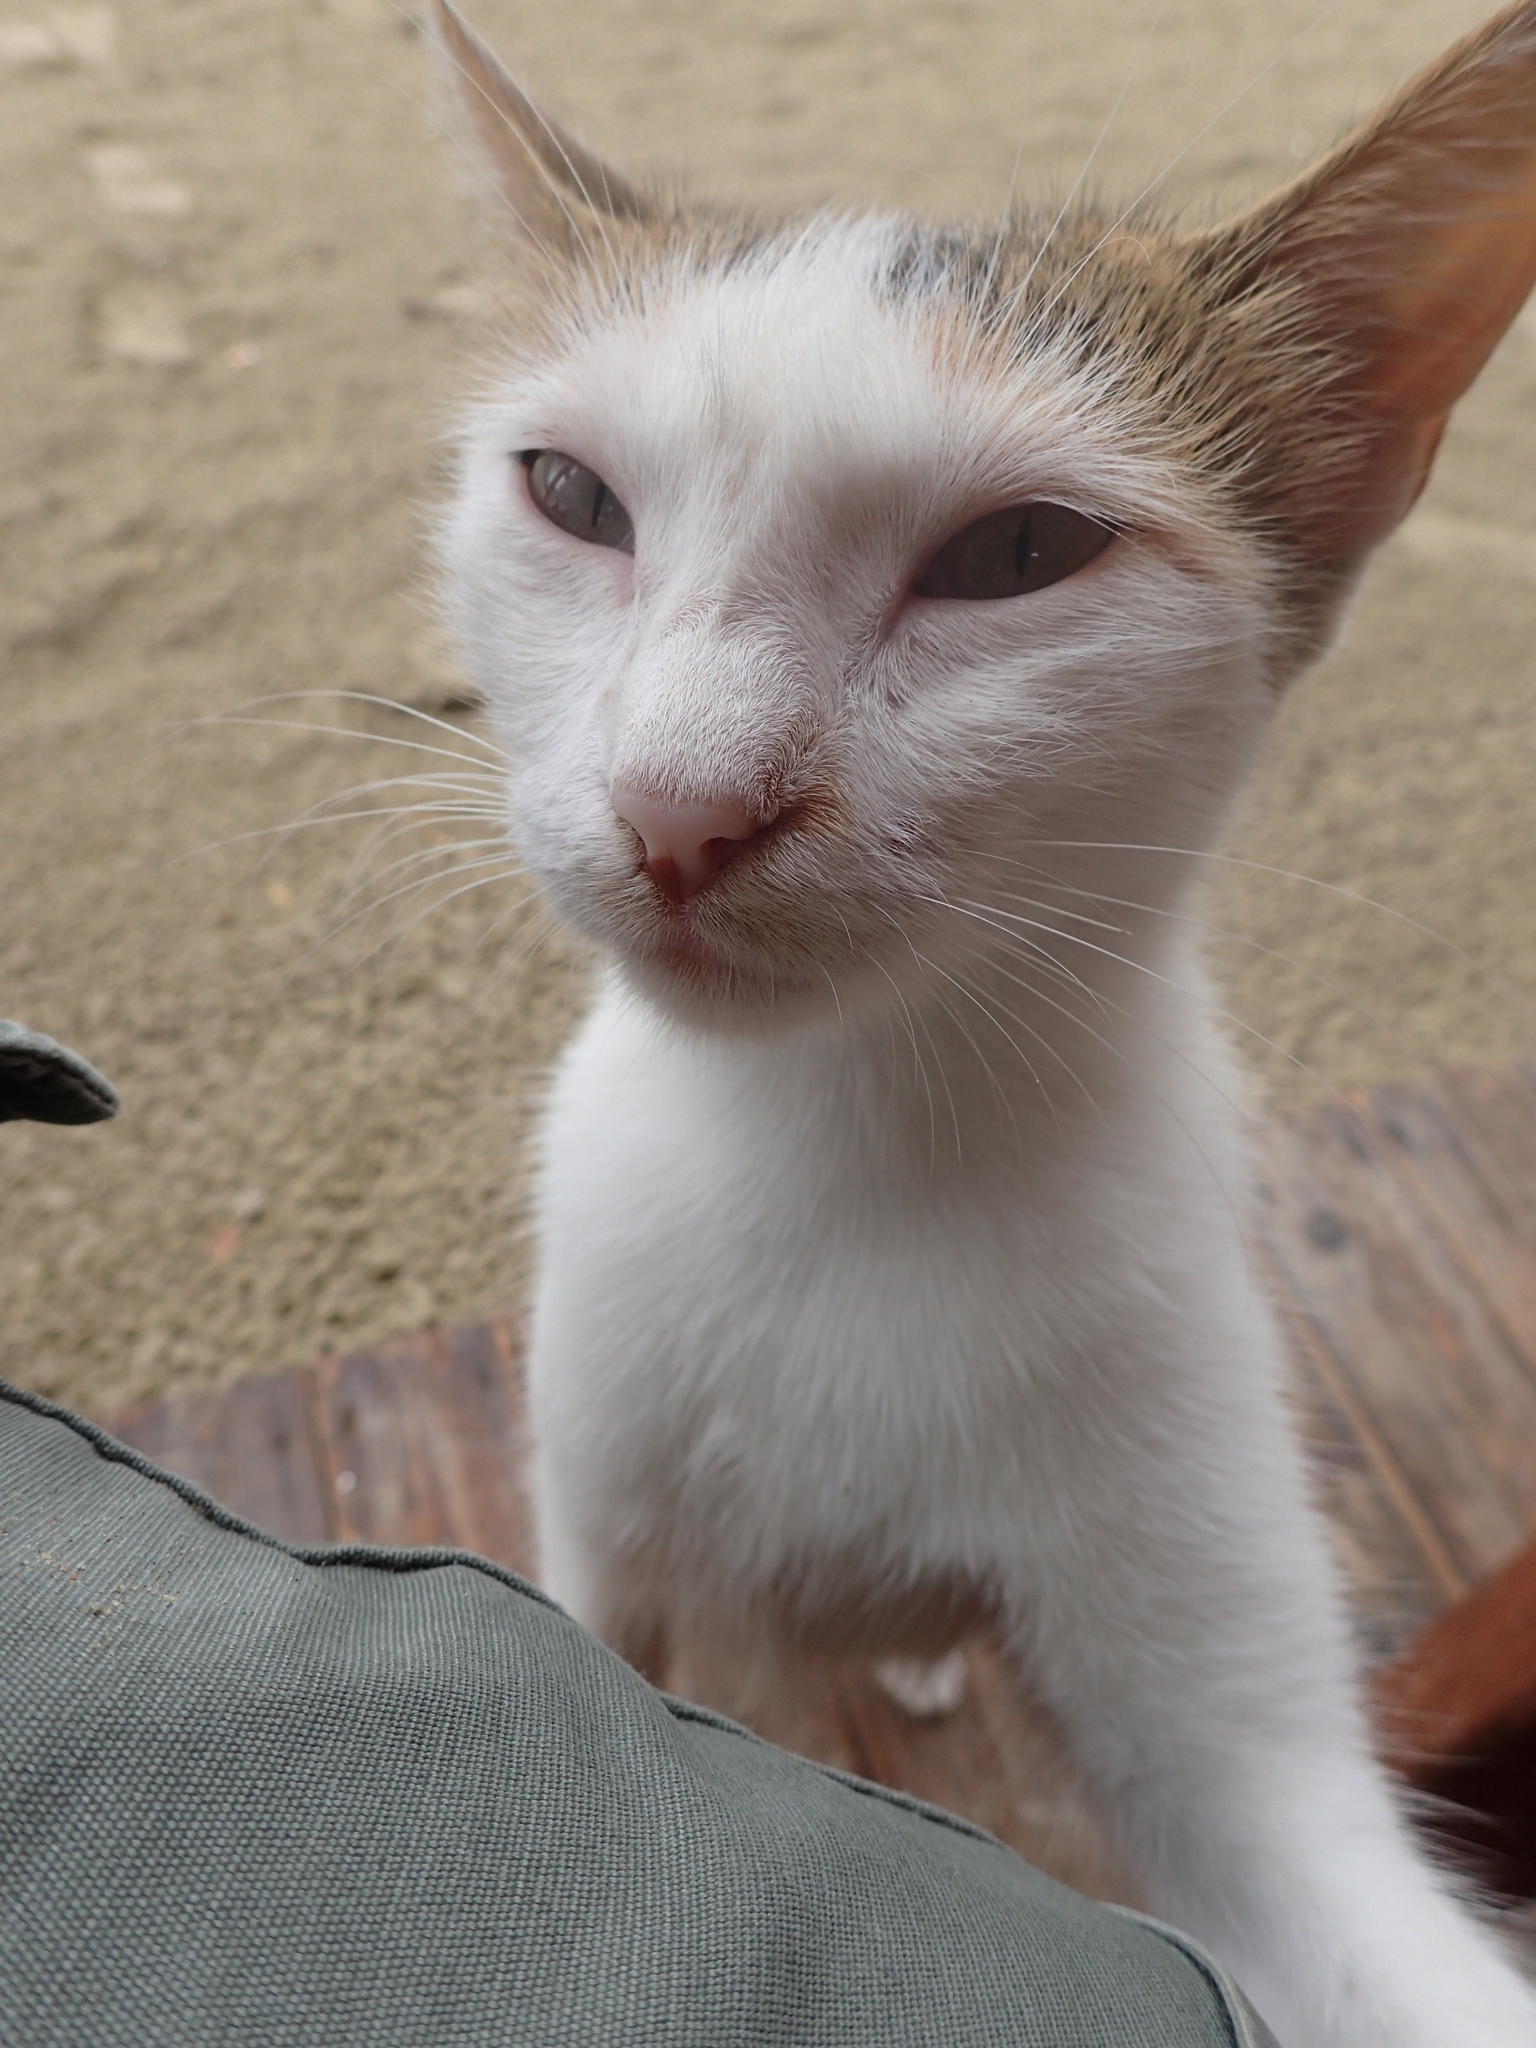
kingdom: Animalia
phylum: Chordata
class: Mammalia
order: Carnivora
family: Felidae
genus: Felis
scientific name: Felis catus
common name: Domestic cat
